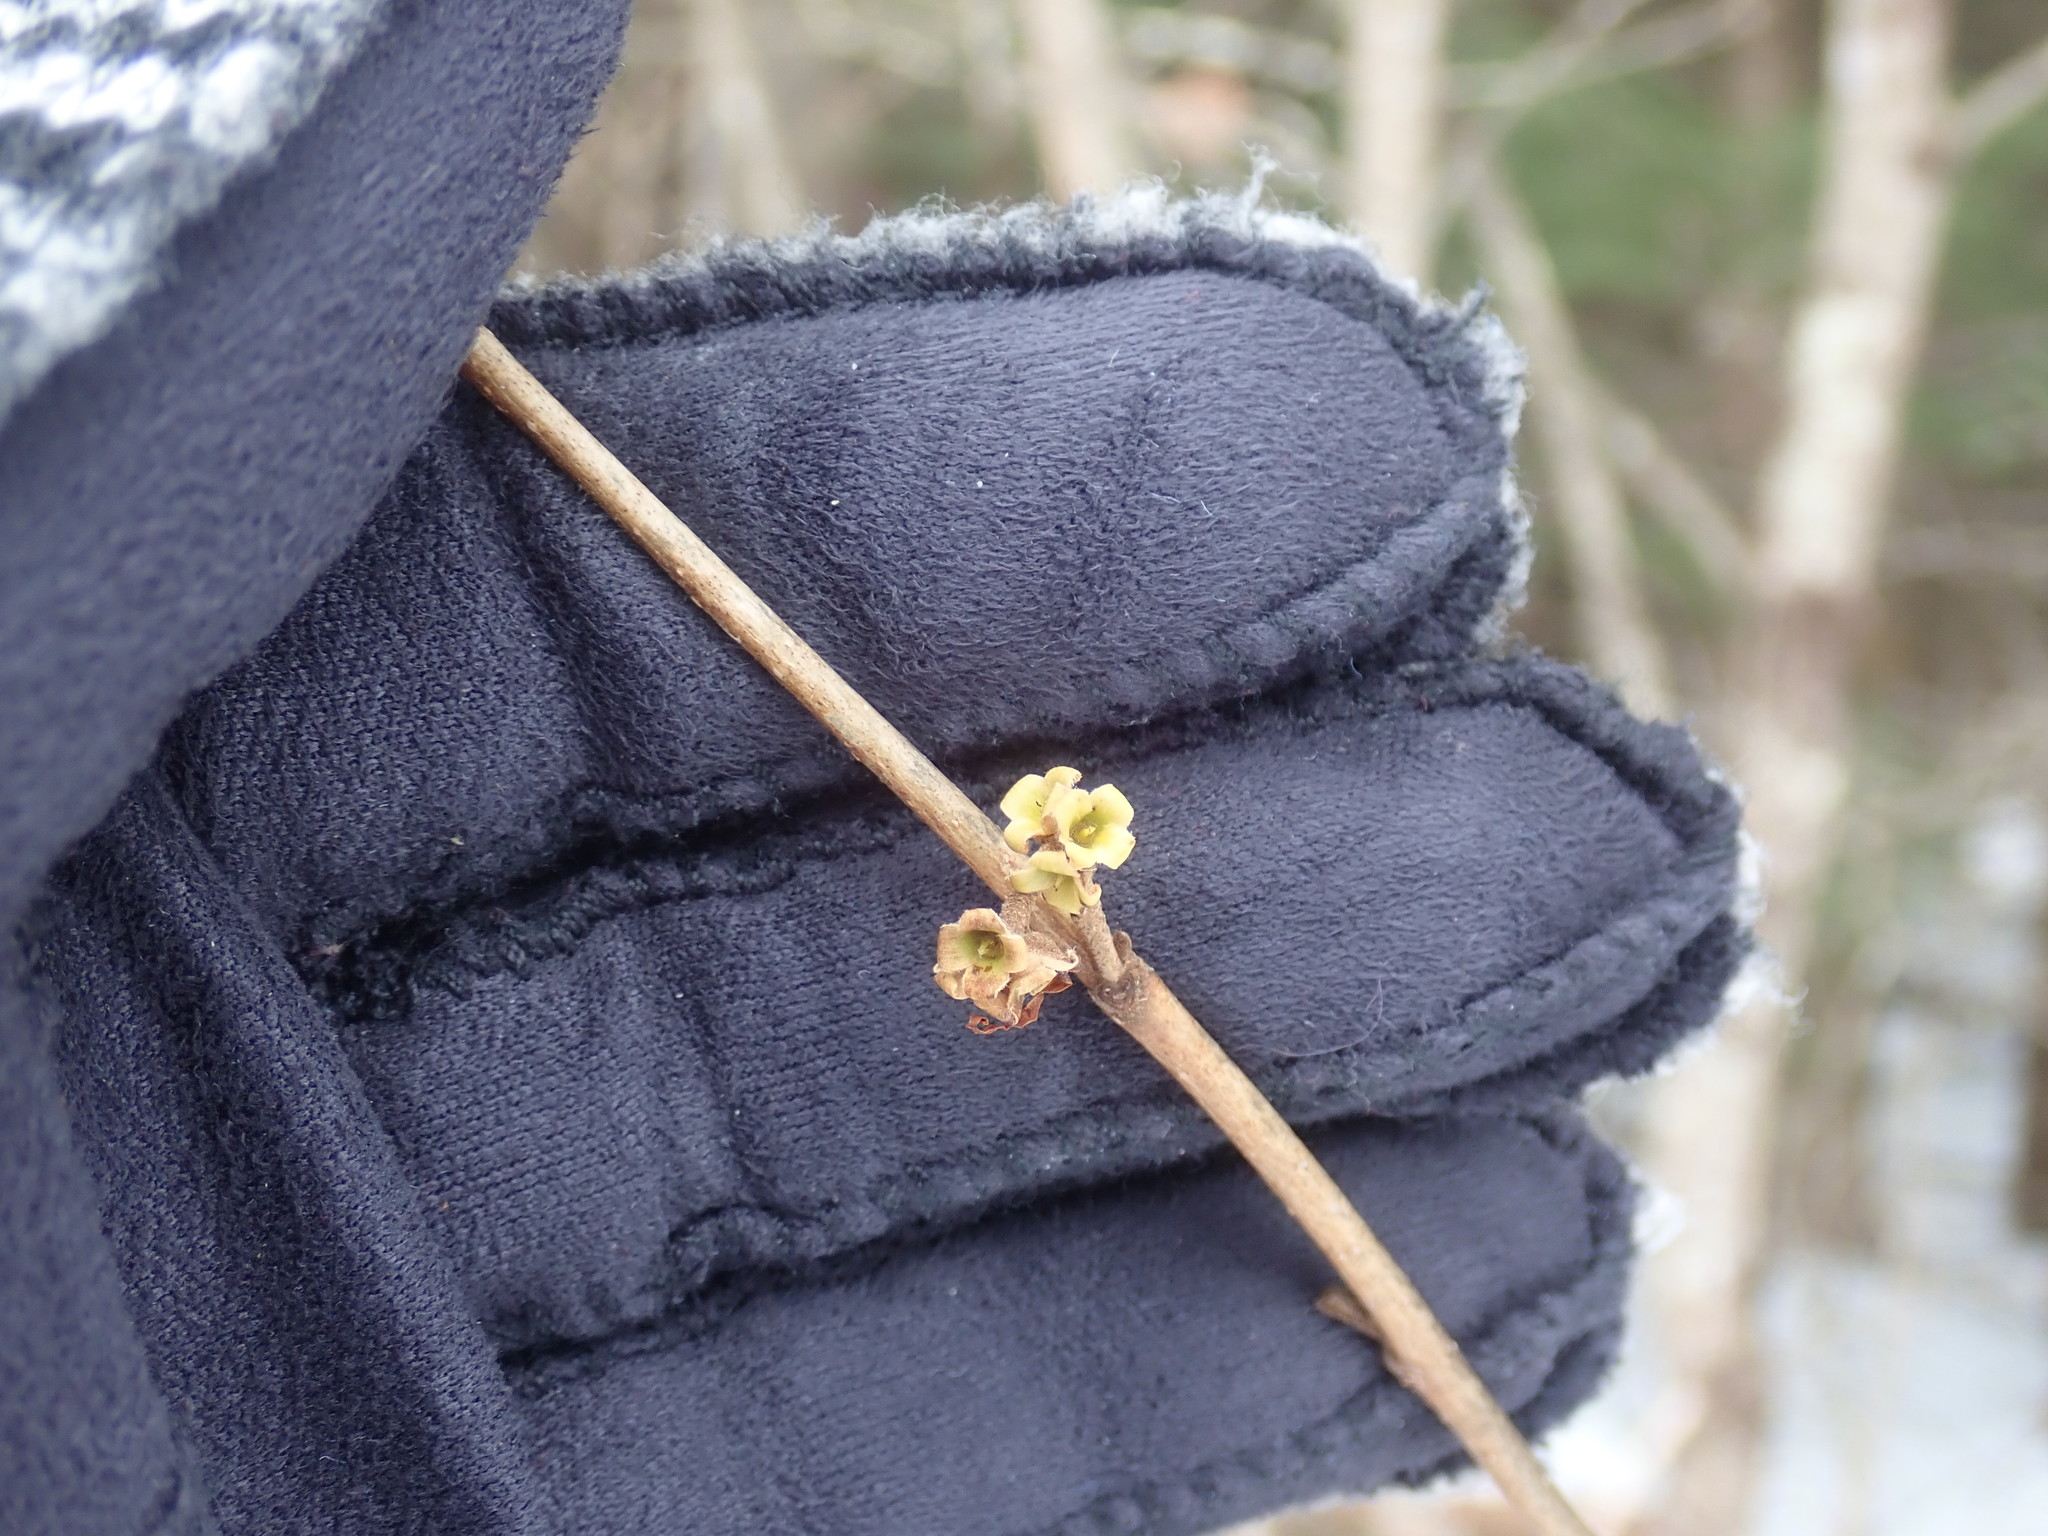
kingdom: Plantae
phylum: Tracheophyta
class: Magnoliopsida
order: Saxifragales
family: Hamamelidaceae
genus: Hamamelis
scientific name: Hamamelis virginiana
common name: Witch-hazel
